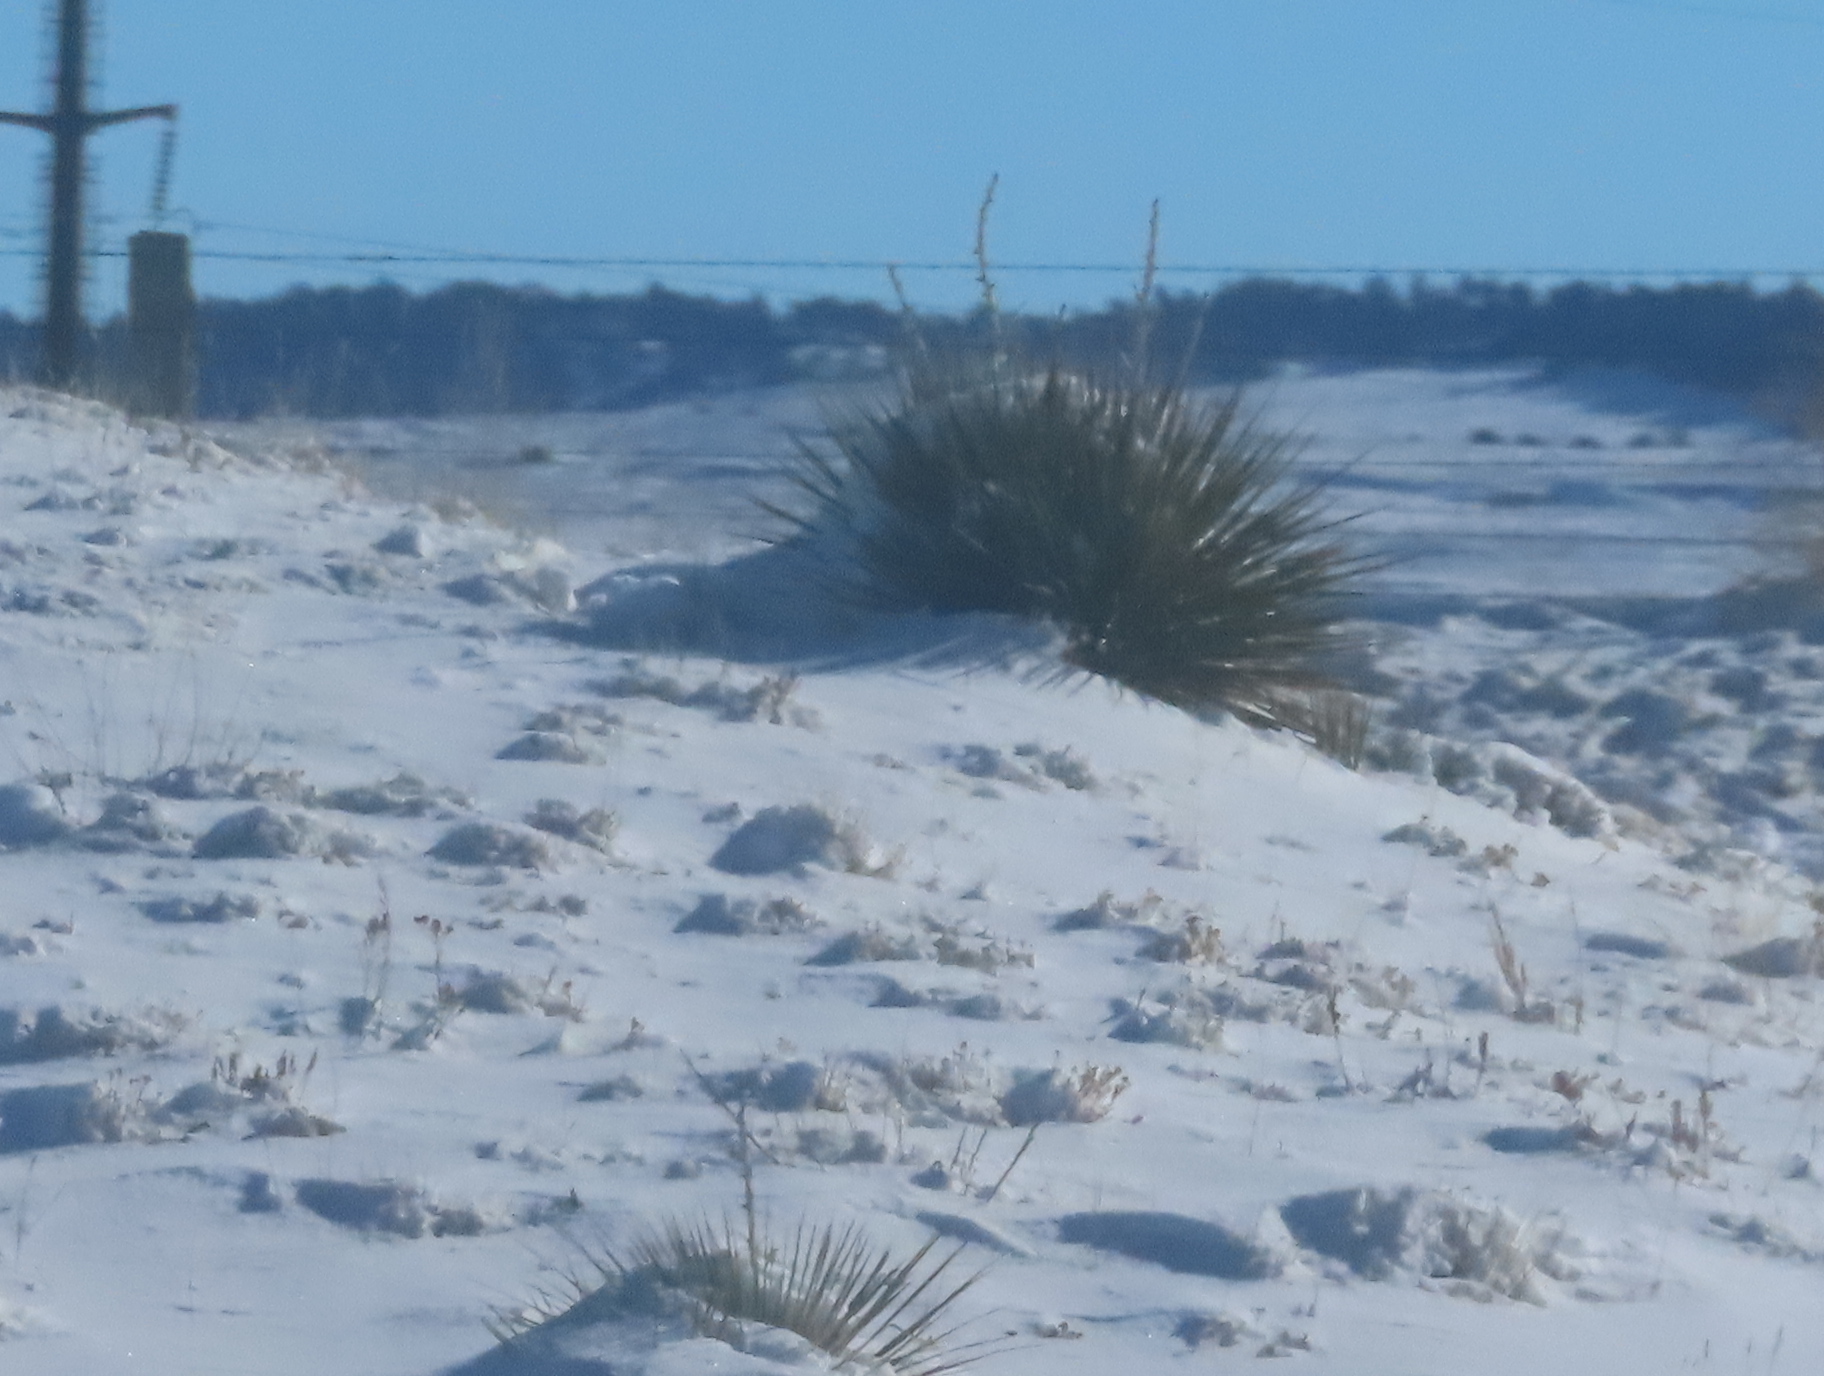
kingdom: Plantae
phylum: Tracheophyta
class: Liliopsida
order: Asparagales
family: Asparagaceae
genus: Yucca
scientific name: Yucca glauca
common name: Great plains yucca
